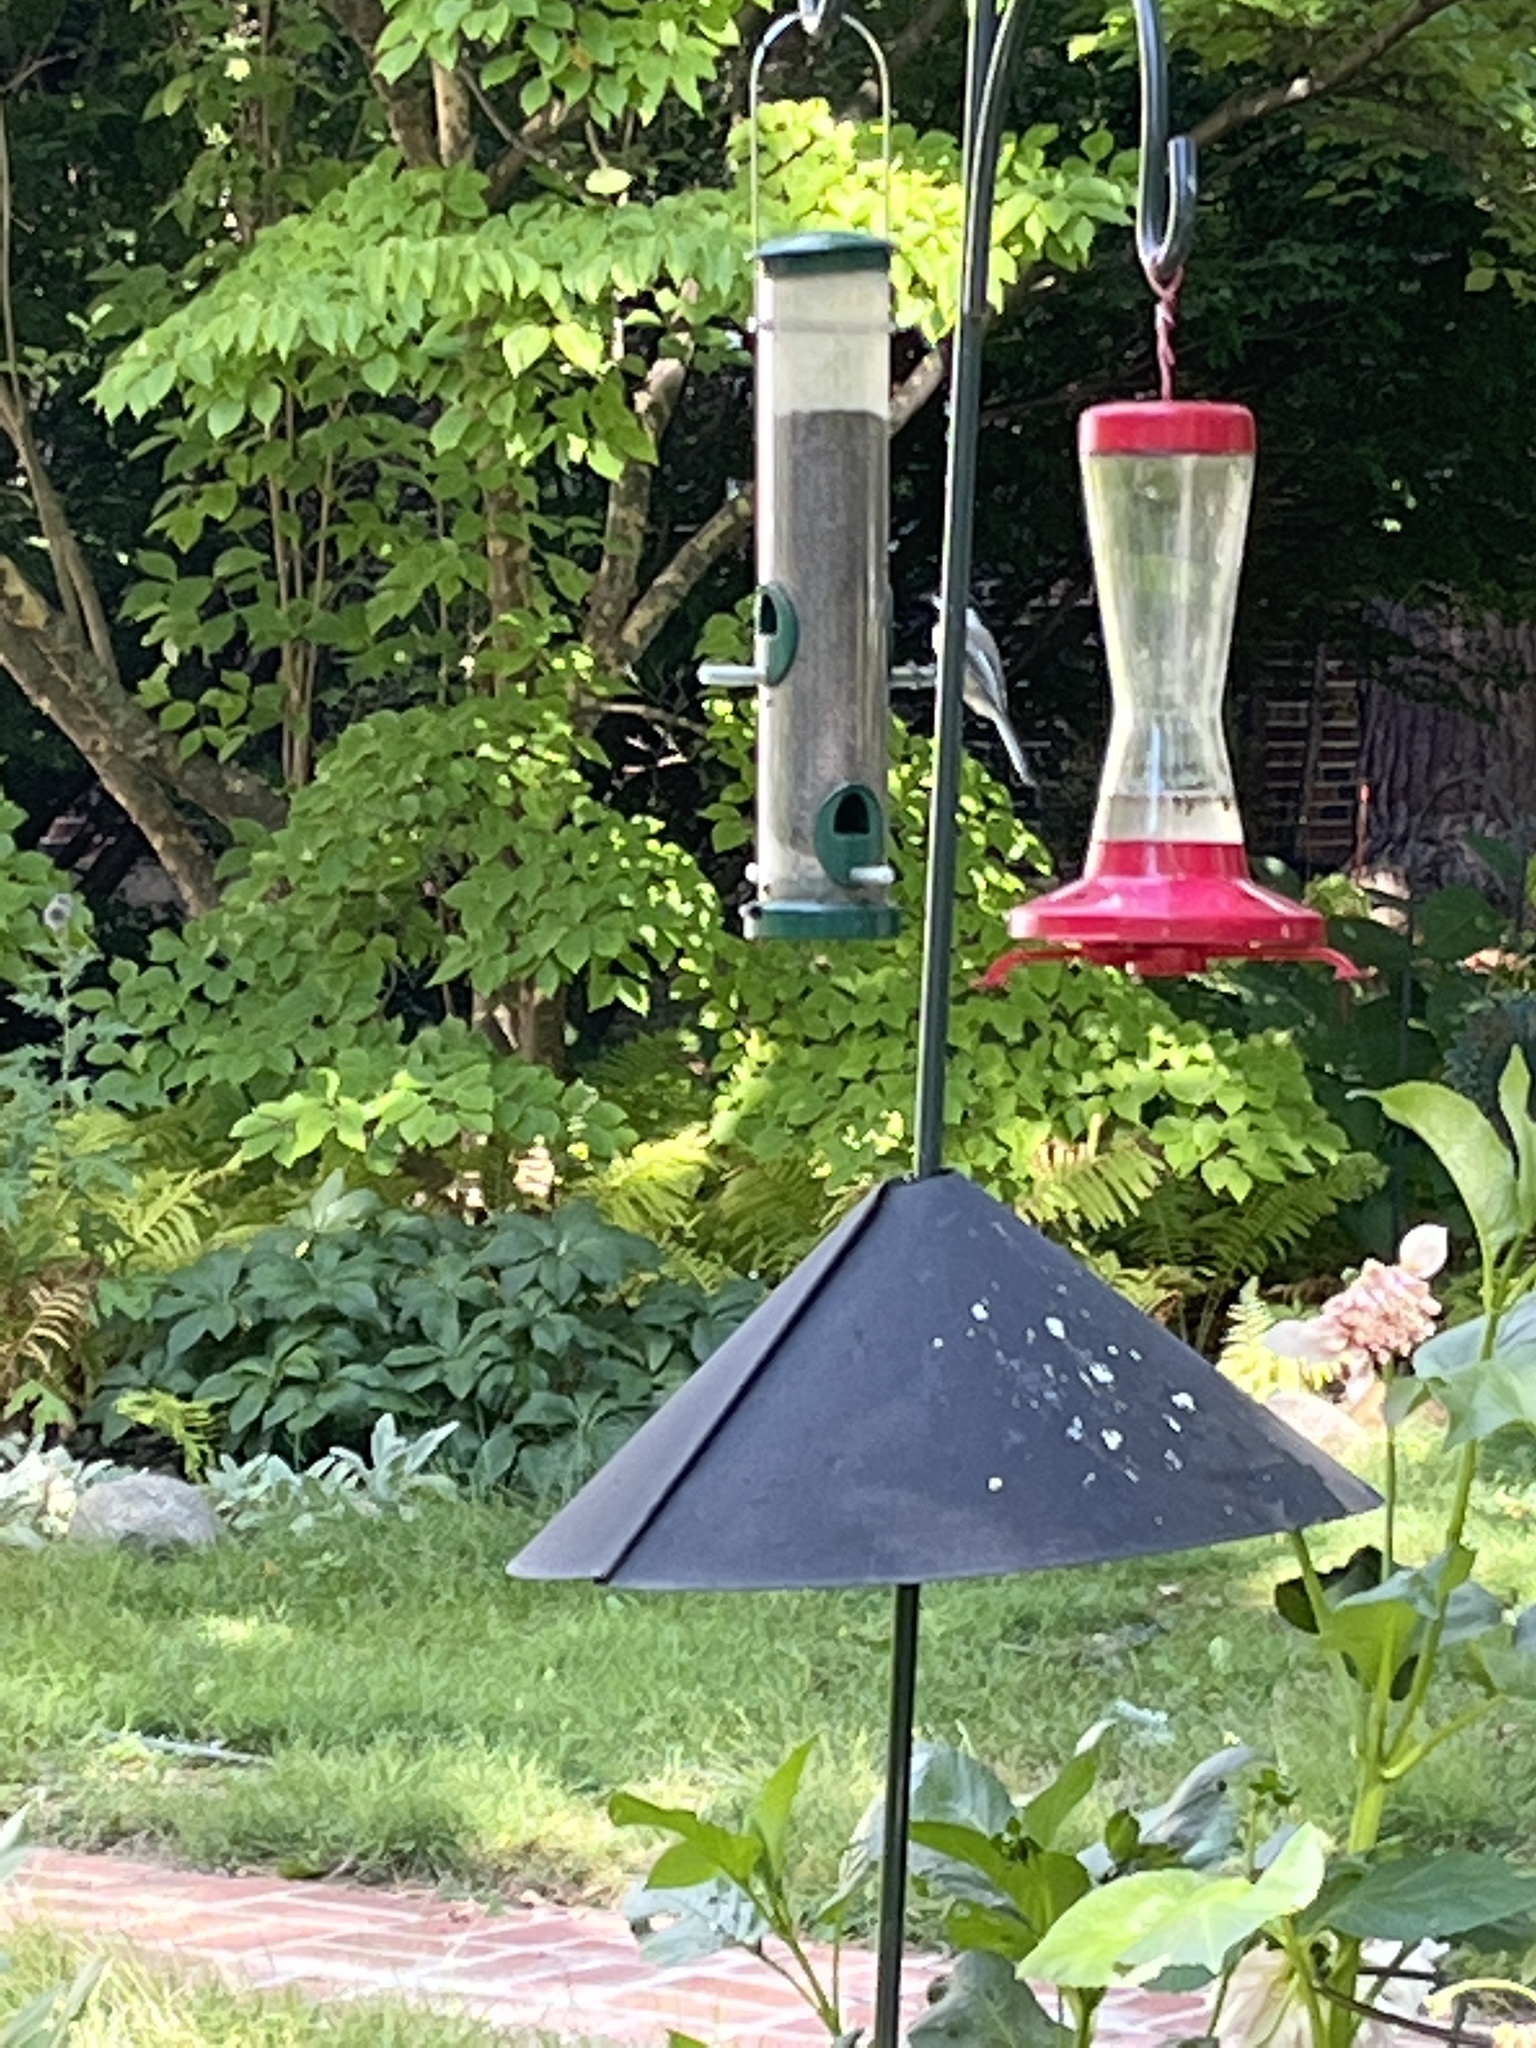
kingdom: Animalia
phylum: Chordata
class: Aves
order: Passeriformes
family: Paridae
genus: Poecile
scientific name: Poecile atricapillus
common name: Black-capped chickadee
